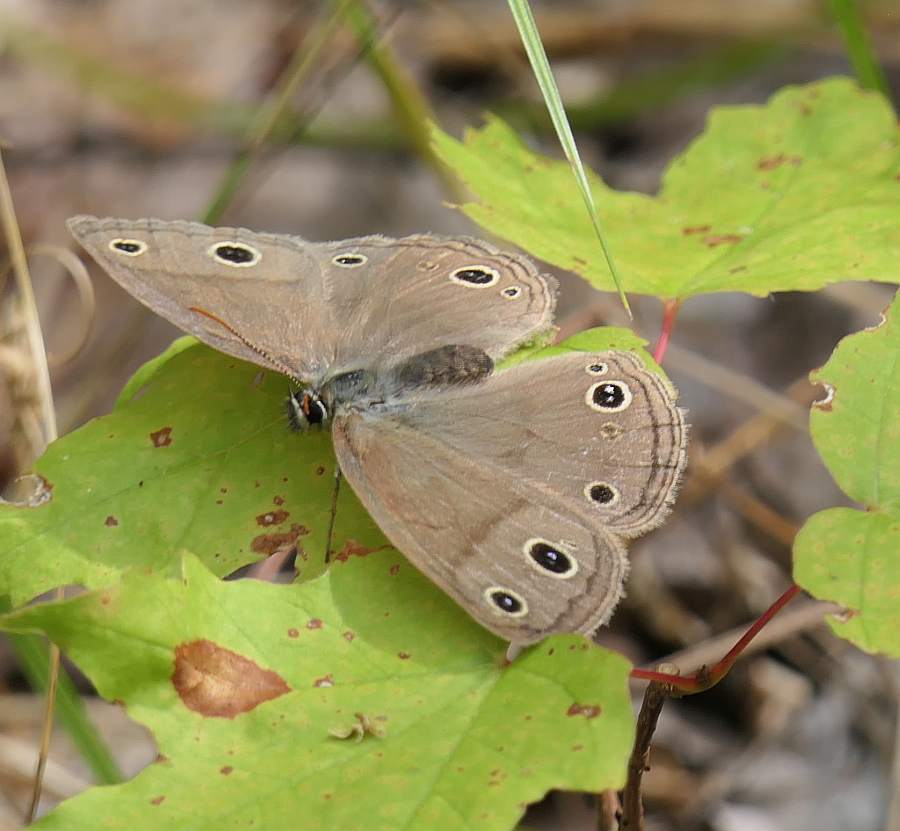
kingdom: Animalia
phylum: Arthropoda
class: Insecta
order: Lepidoptera
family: Nymphalidae
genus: Euptychia
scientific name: Euptychia cymela
